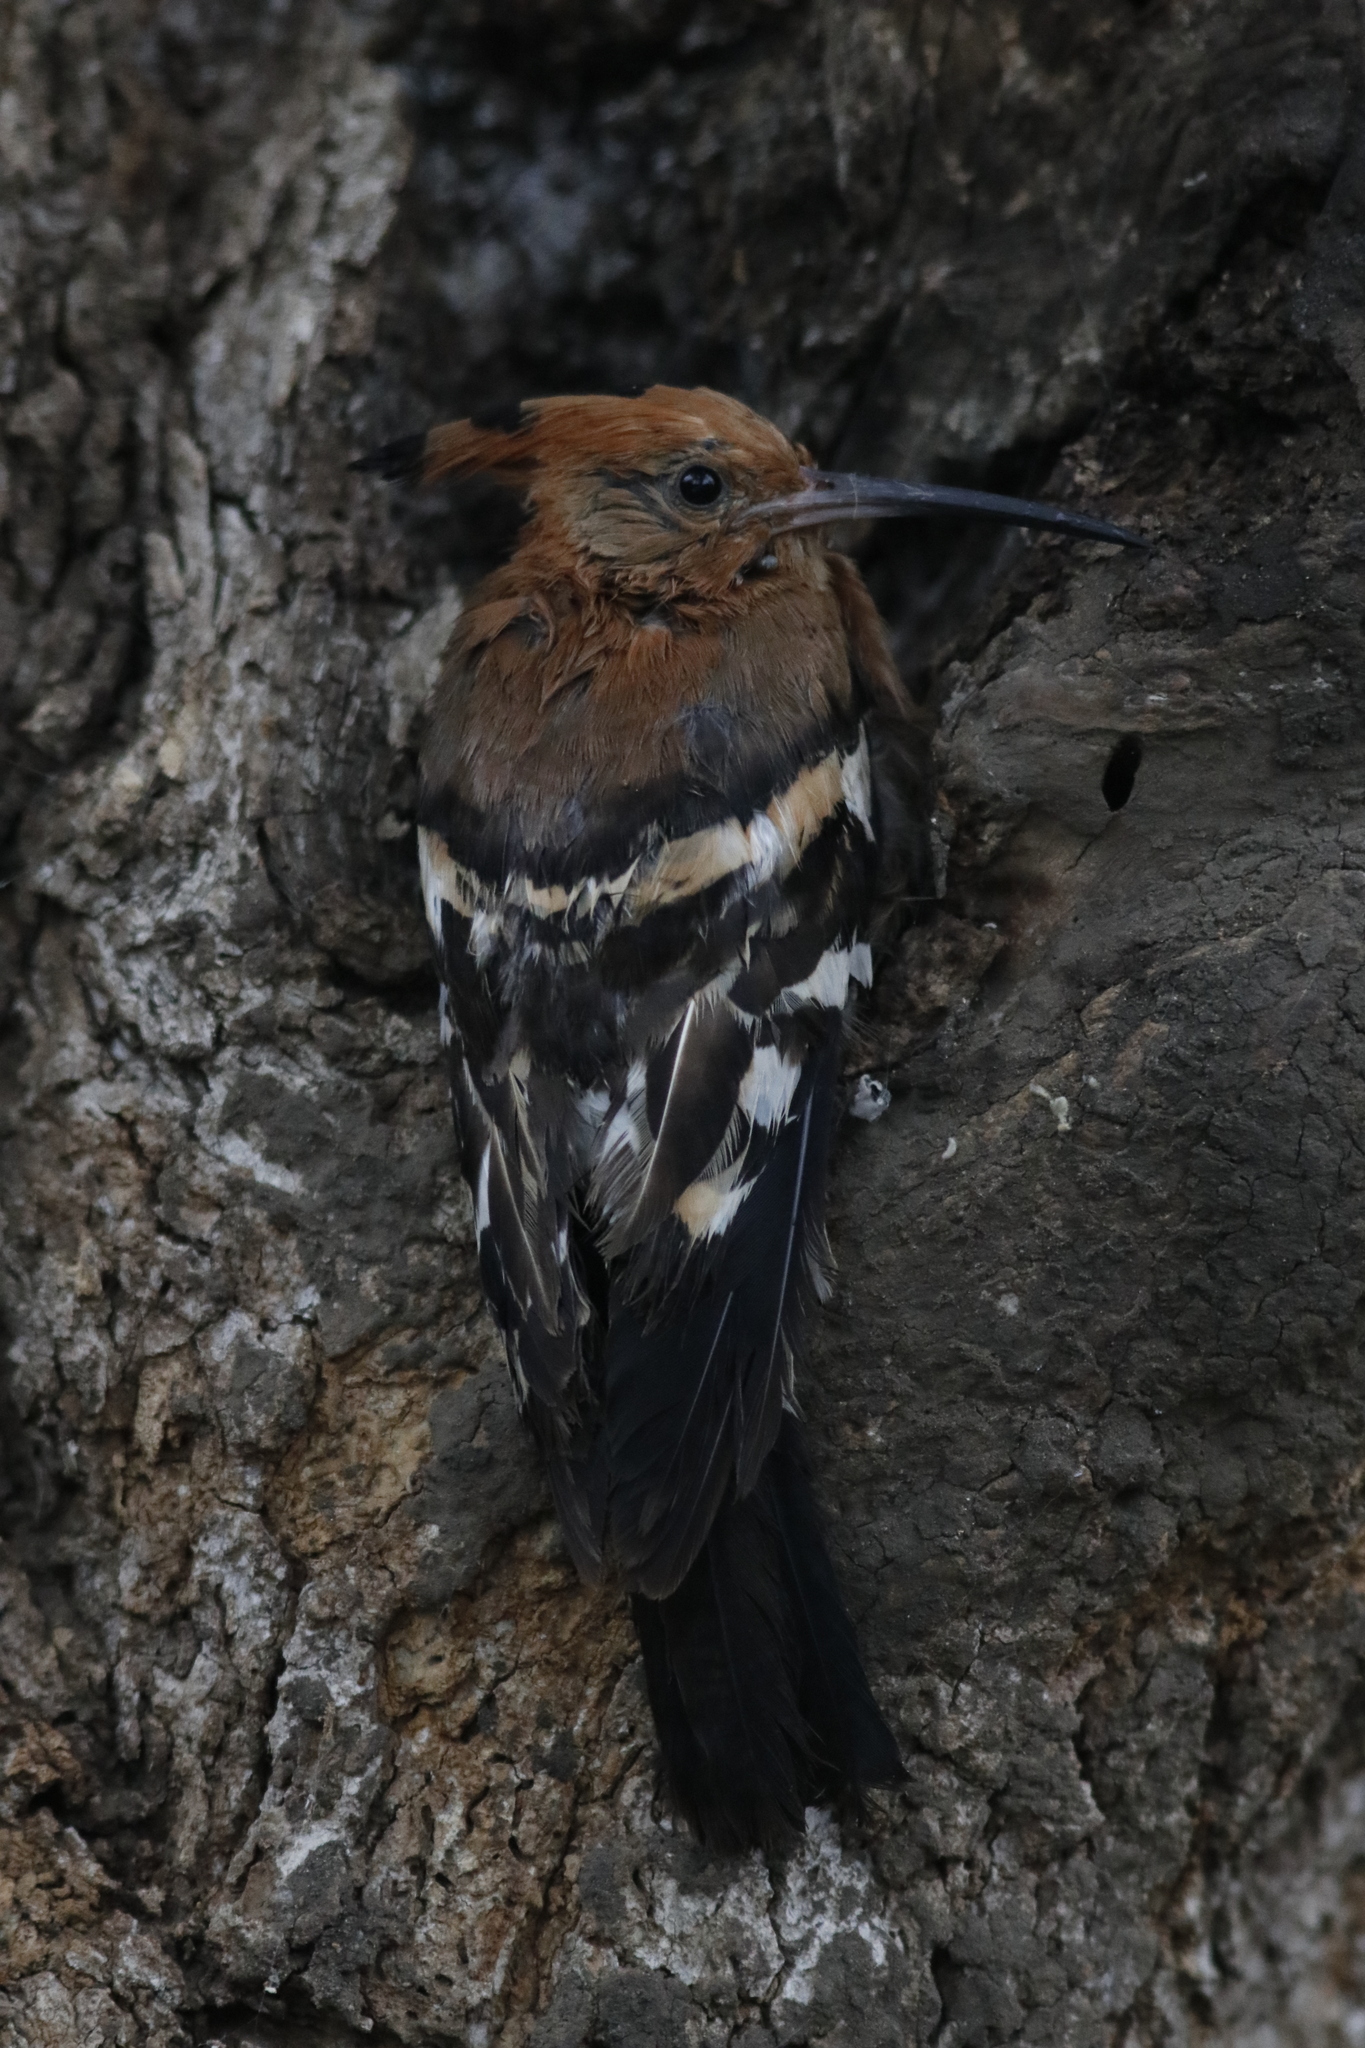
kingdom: Animalia
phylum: Chordata
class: Aves
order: Bucerotiformes
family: Upupidae
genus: Upupa
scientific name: Upupa africana
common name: African hoopoe
